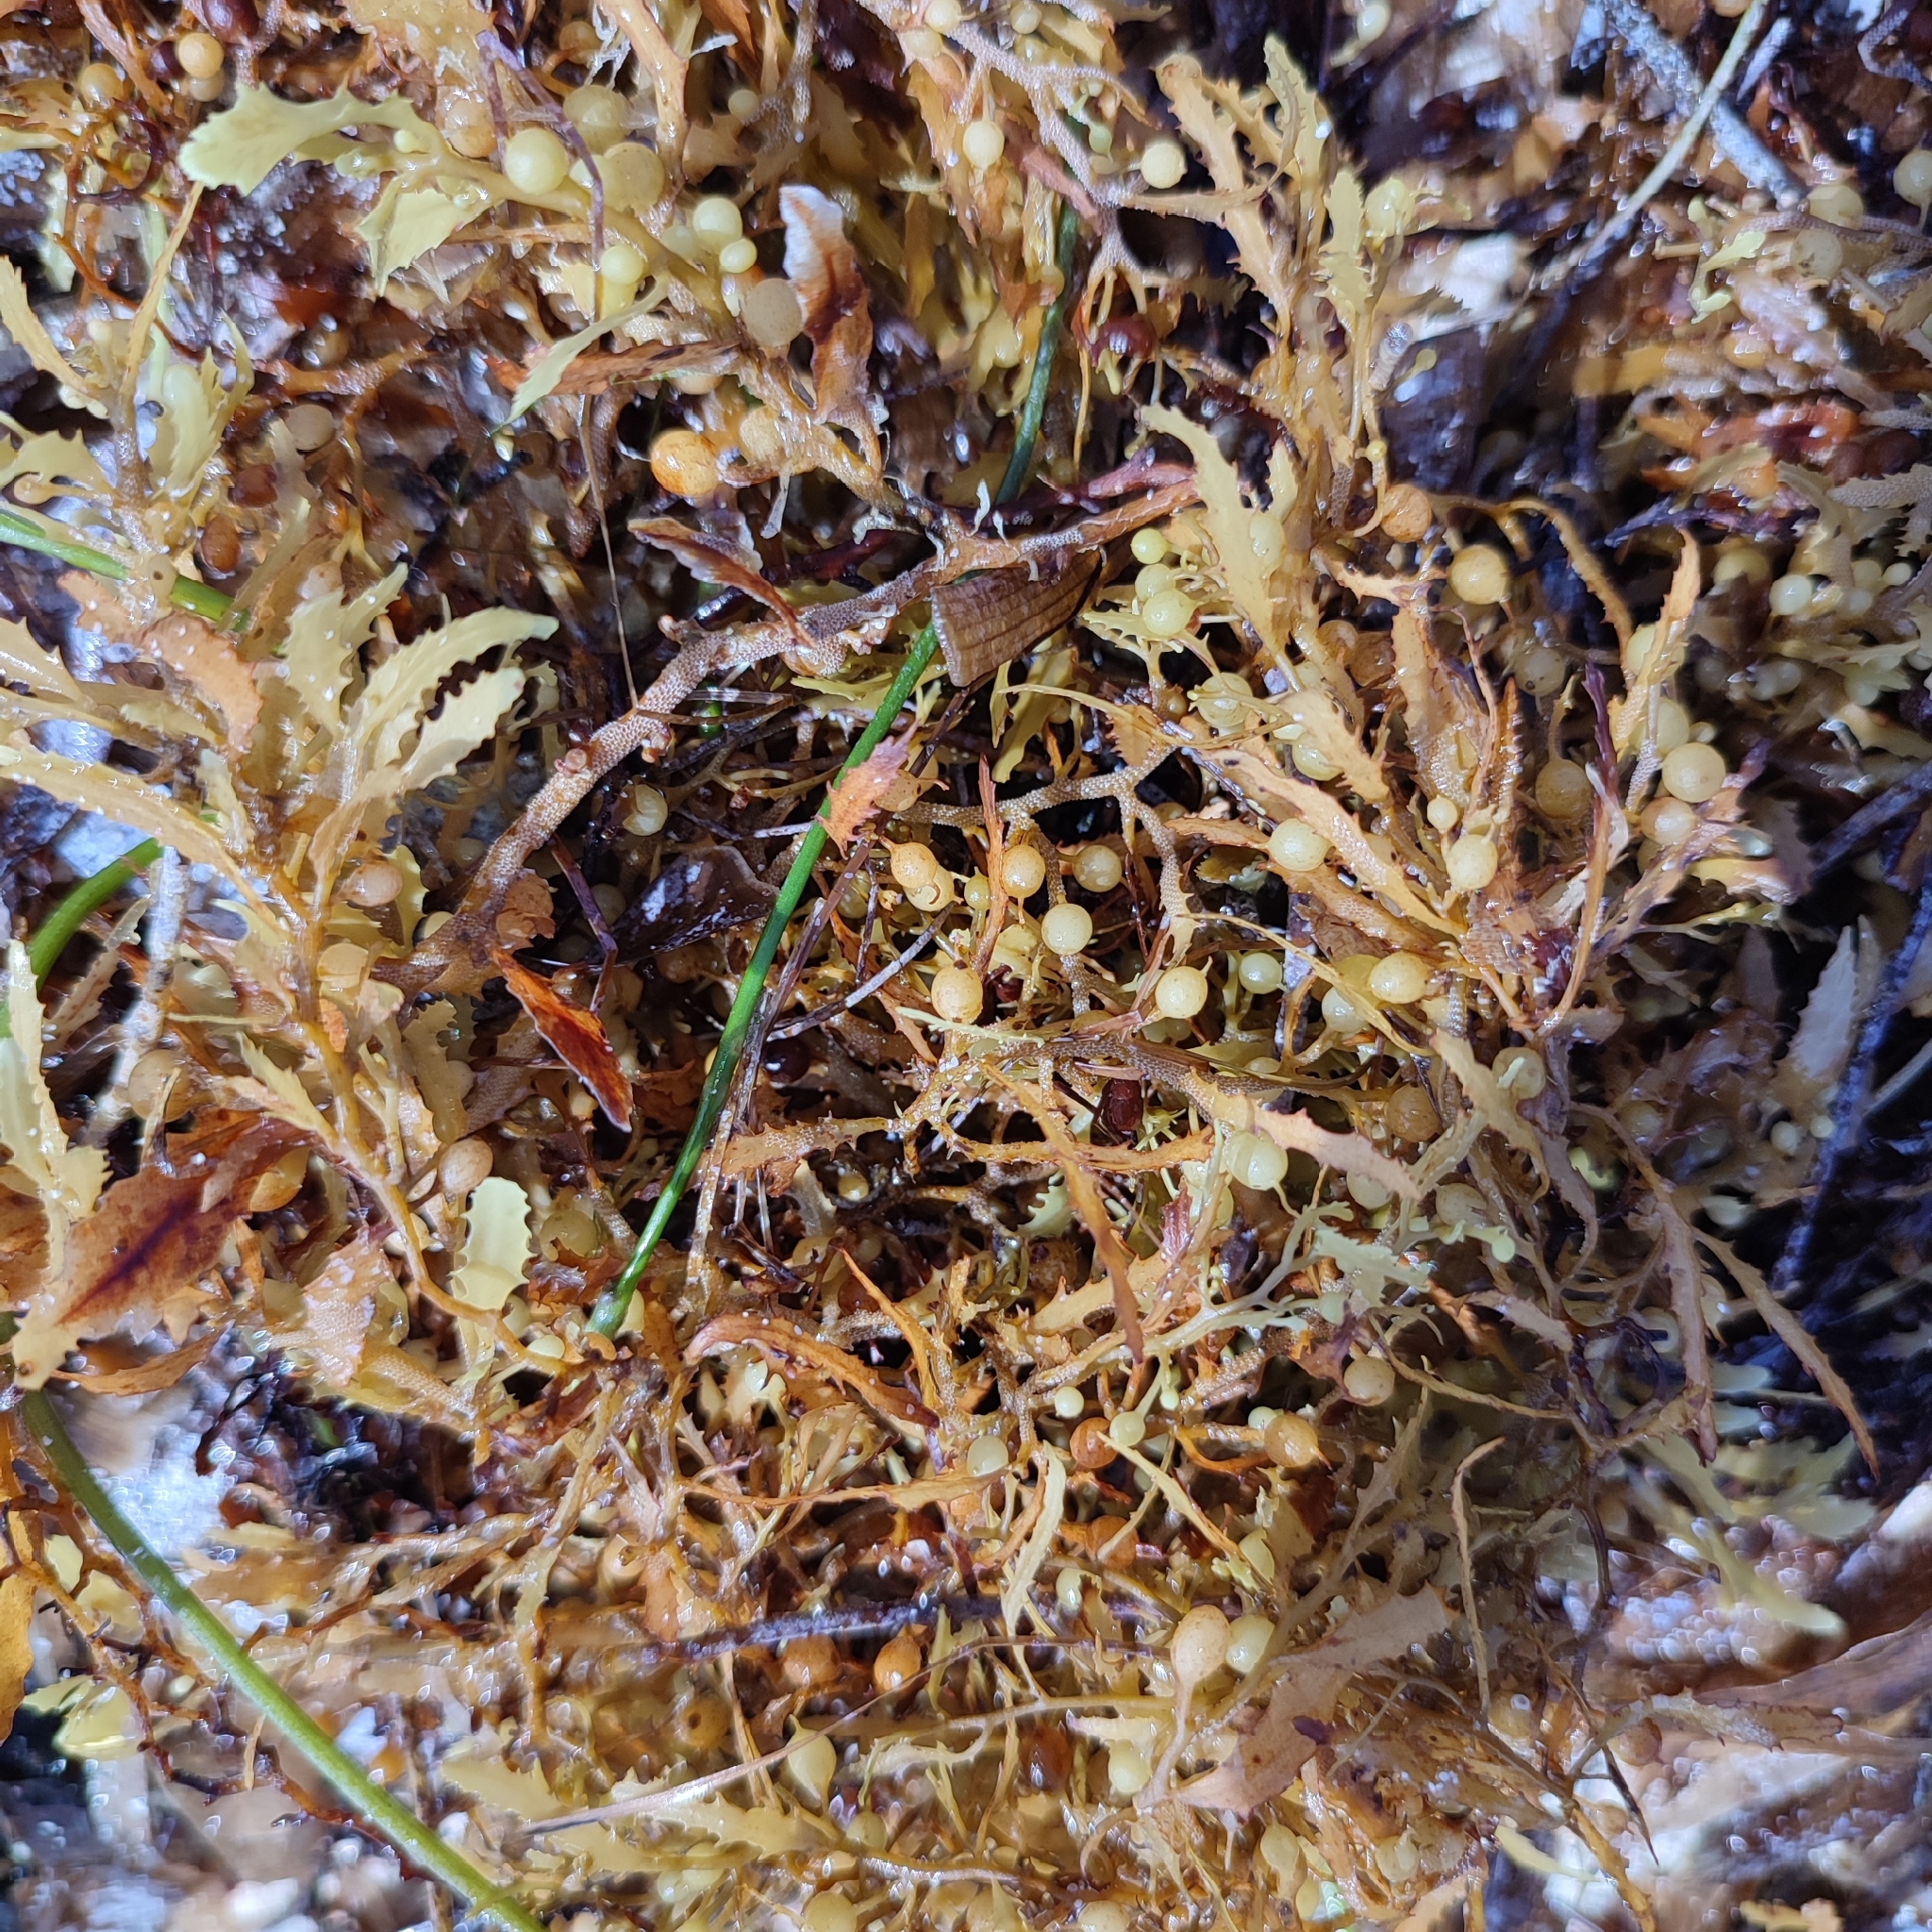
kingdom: Chromista
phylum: Ochrophyta
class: Phaeophyceae
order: Fucales
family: Sargassaceae
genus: Sargassum
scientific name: Sargassum fluitans
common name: Sargassum seaweed
